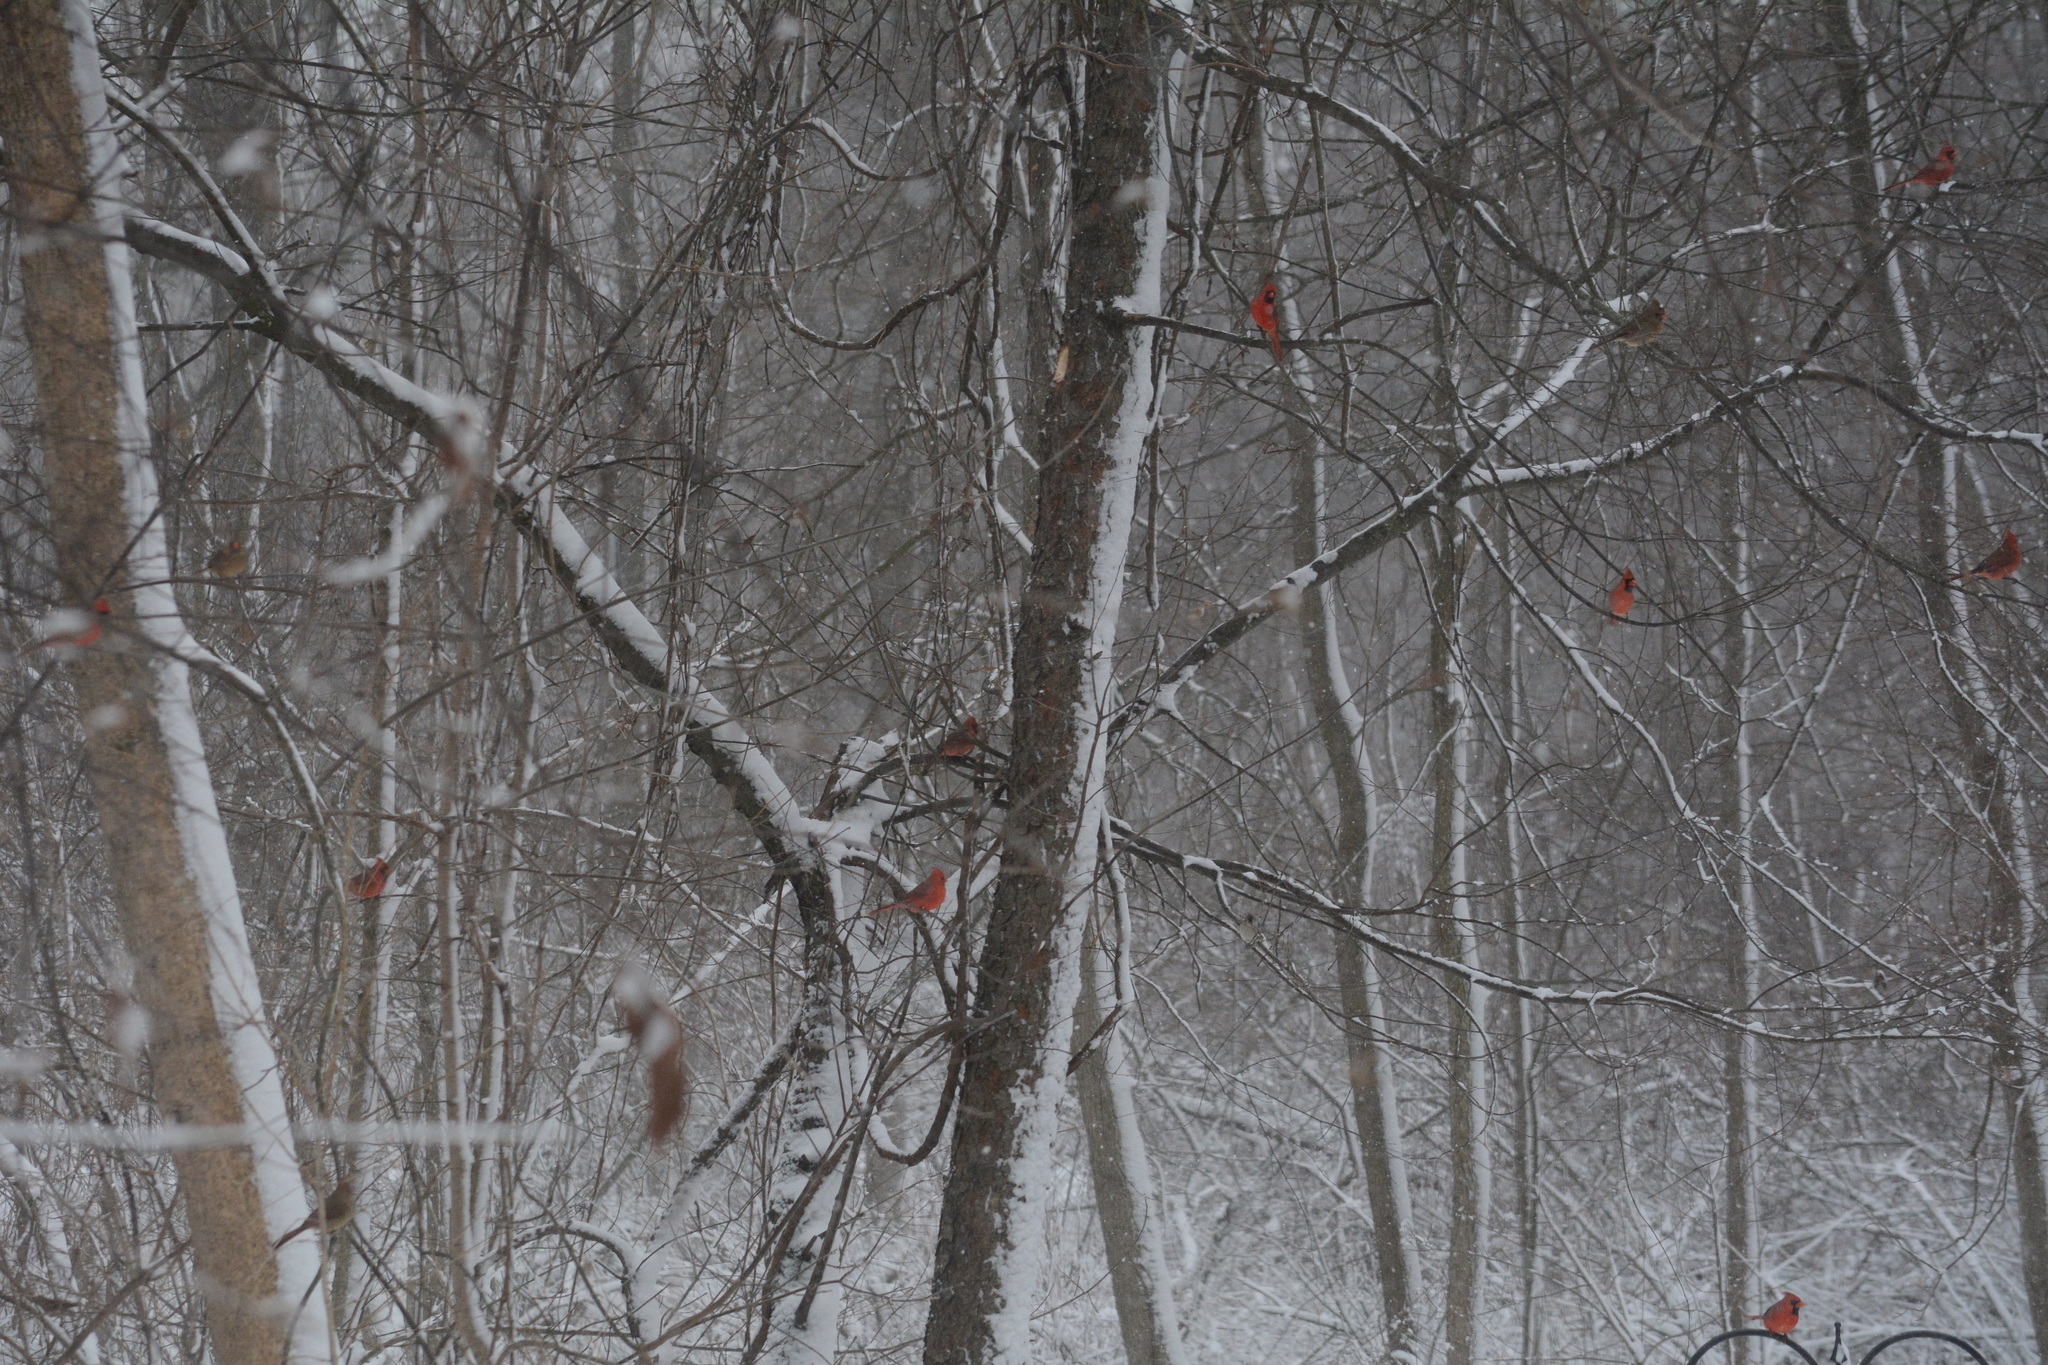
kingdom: Animalia
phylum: Chordata
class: Aves
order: Passeriformes
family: Cardinalidae
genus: Cardinalis
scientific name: Cardinalis cardinalis
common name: Northern cardinal
